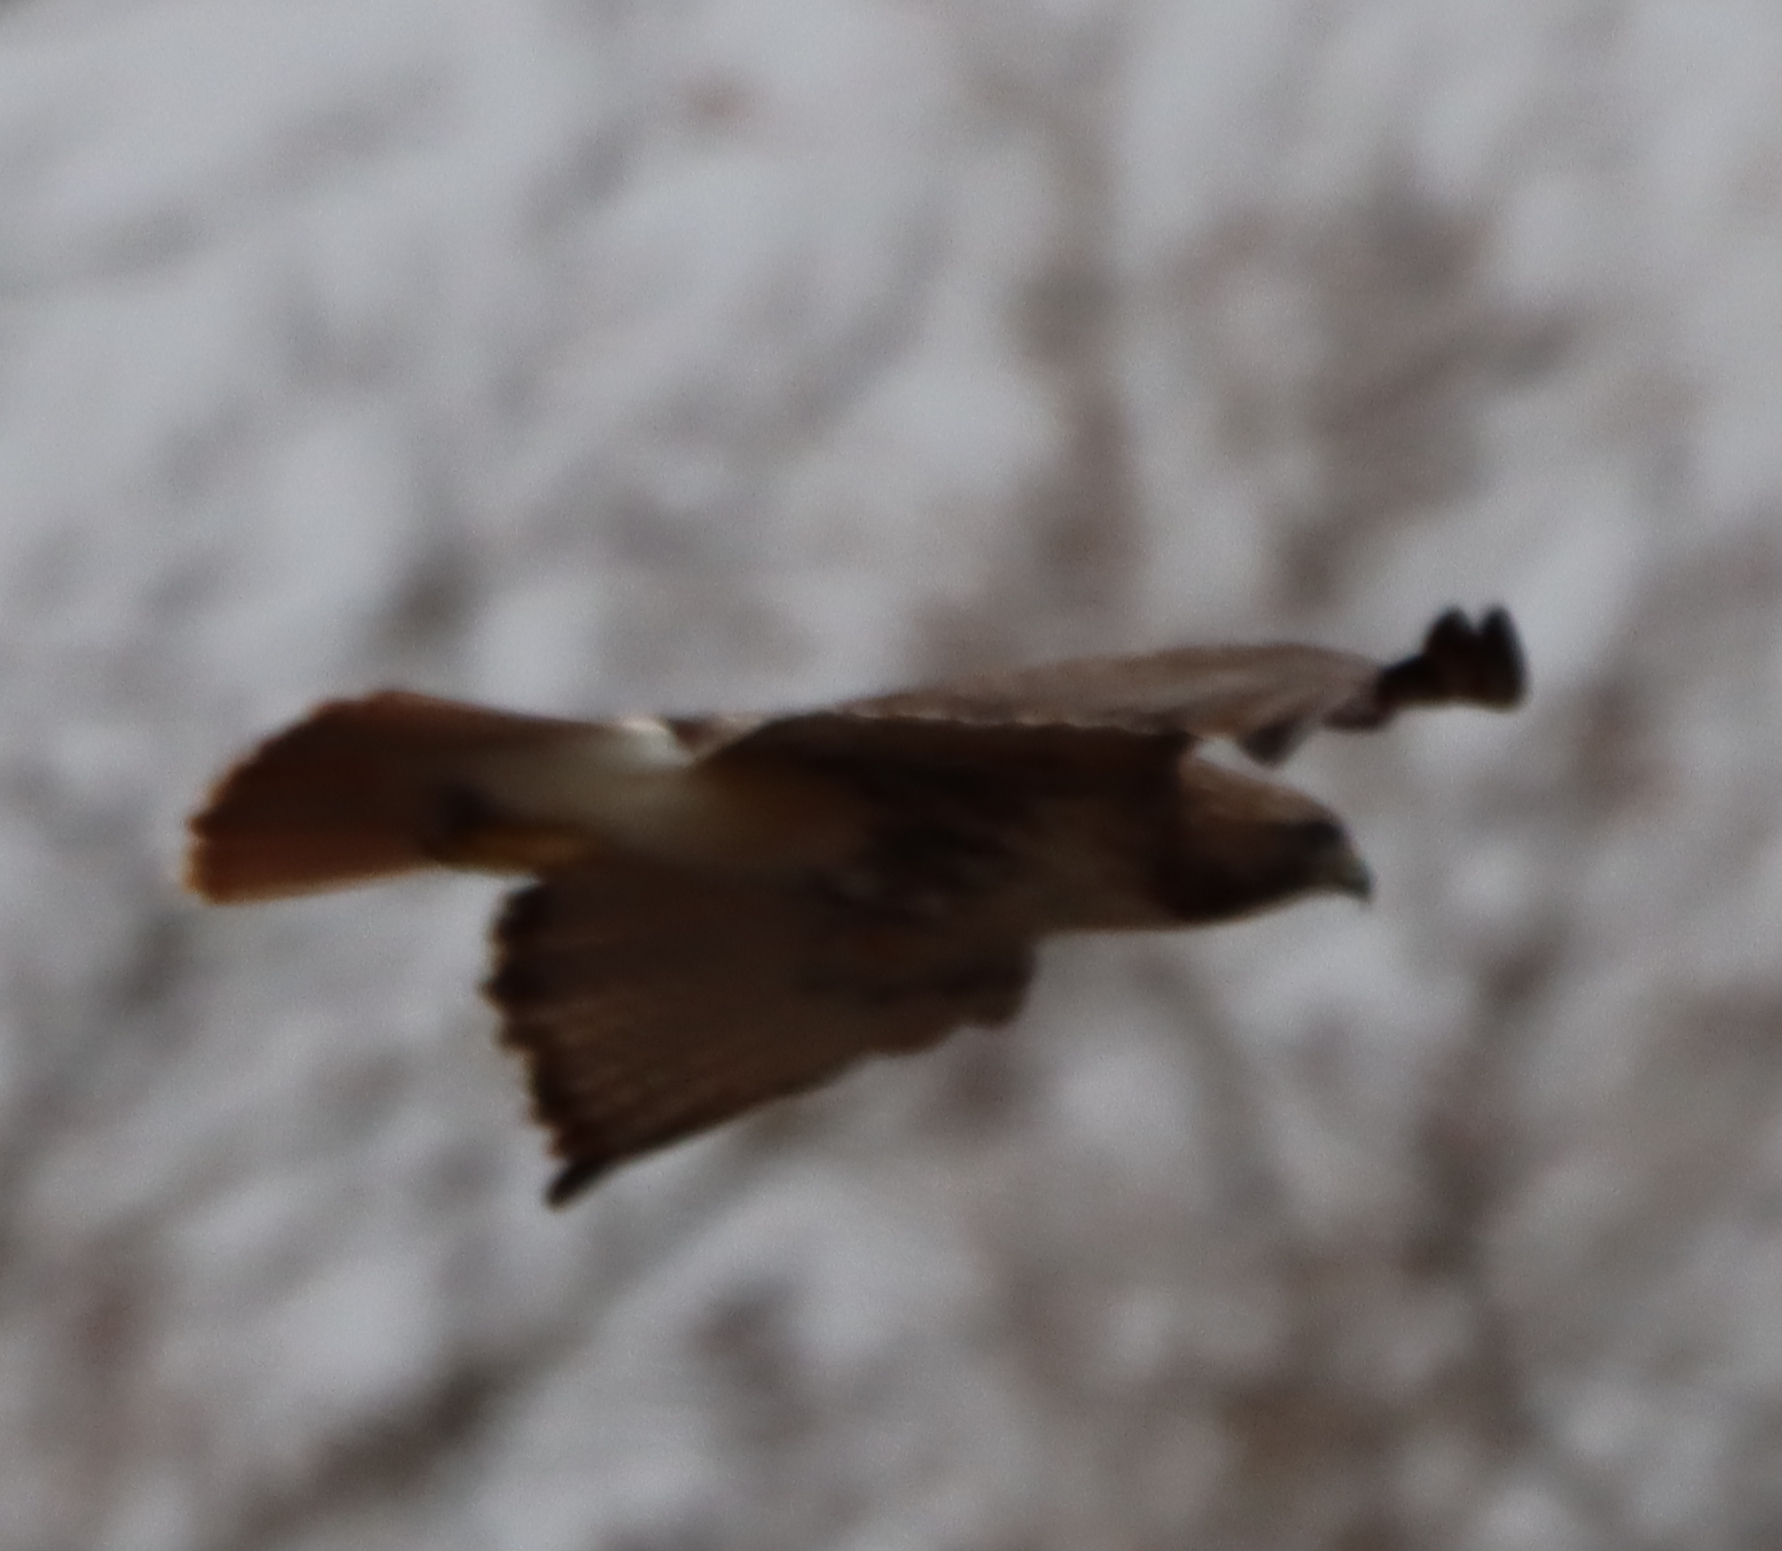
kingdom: Animalia
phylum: Chordata
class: Aves
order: Accipitriformes
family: Accipitridae
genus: Buteo
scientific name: Buteo jamaicensis
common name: Red-tailed hawk
